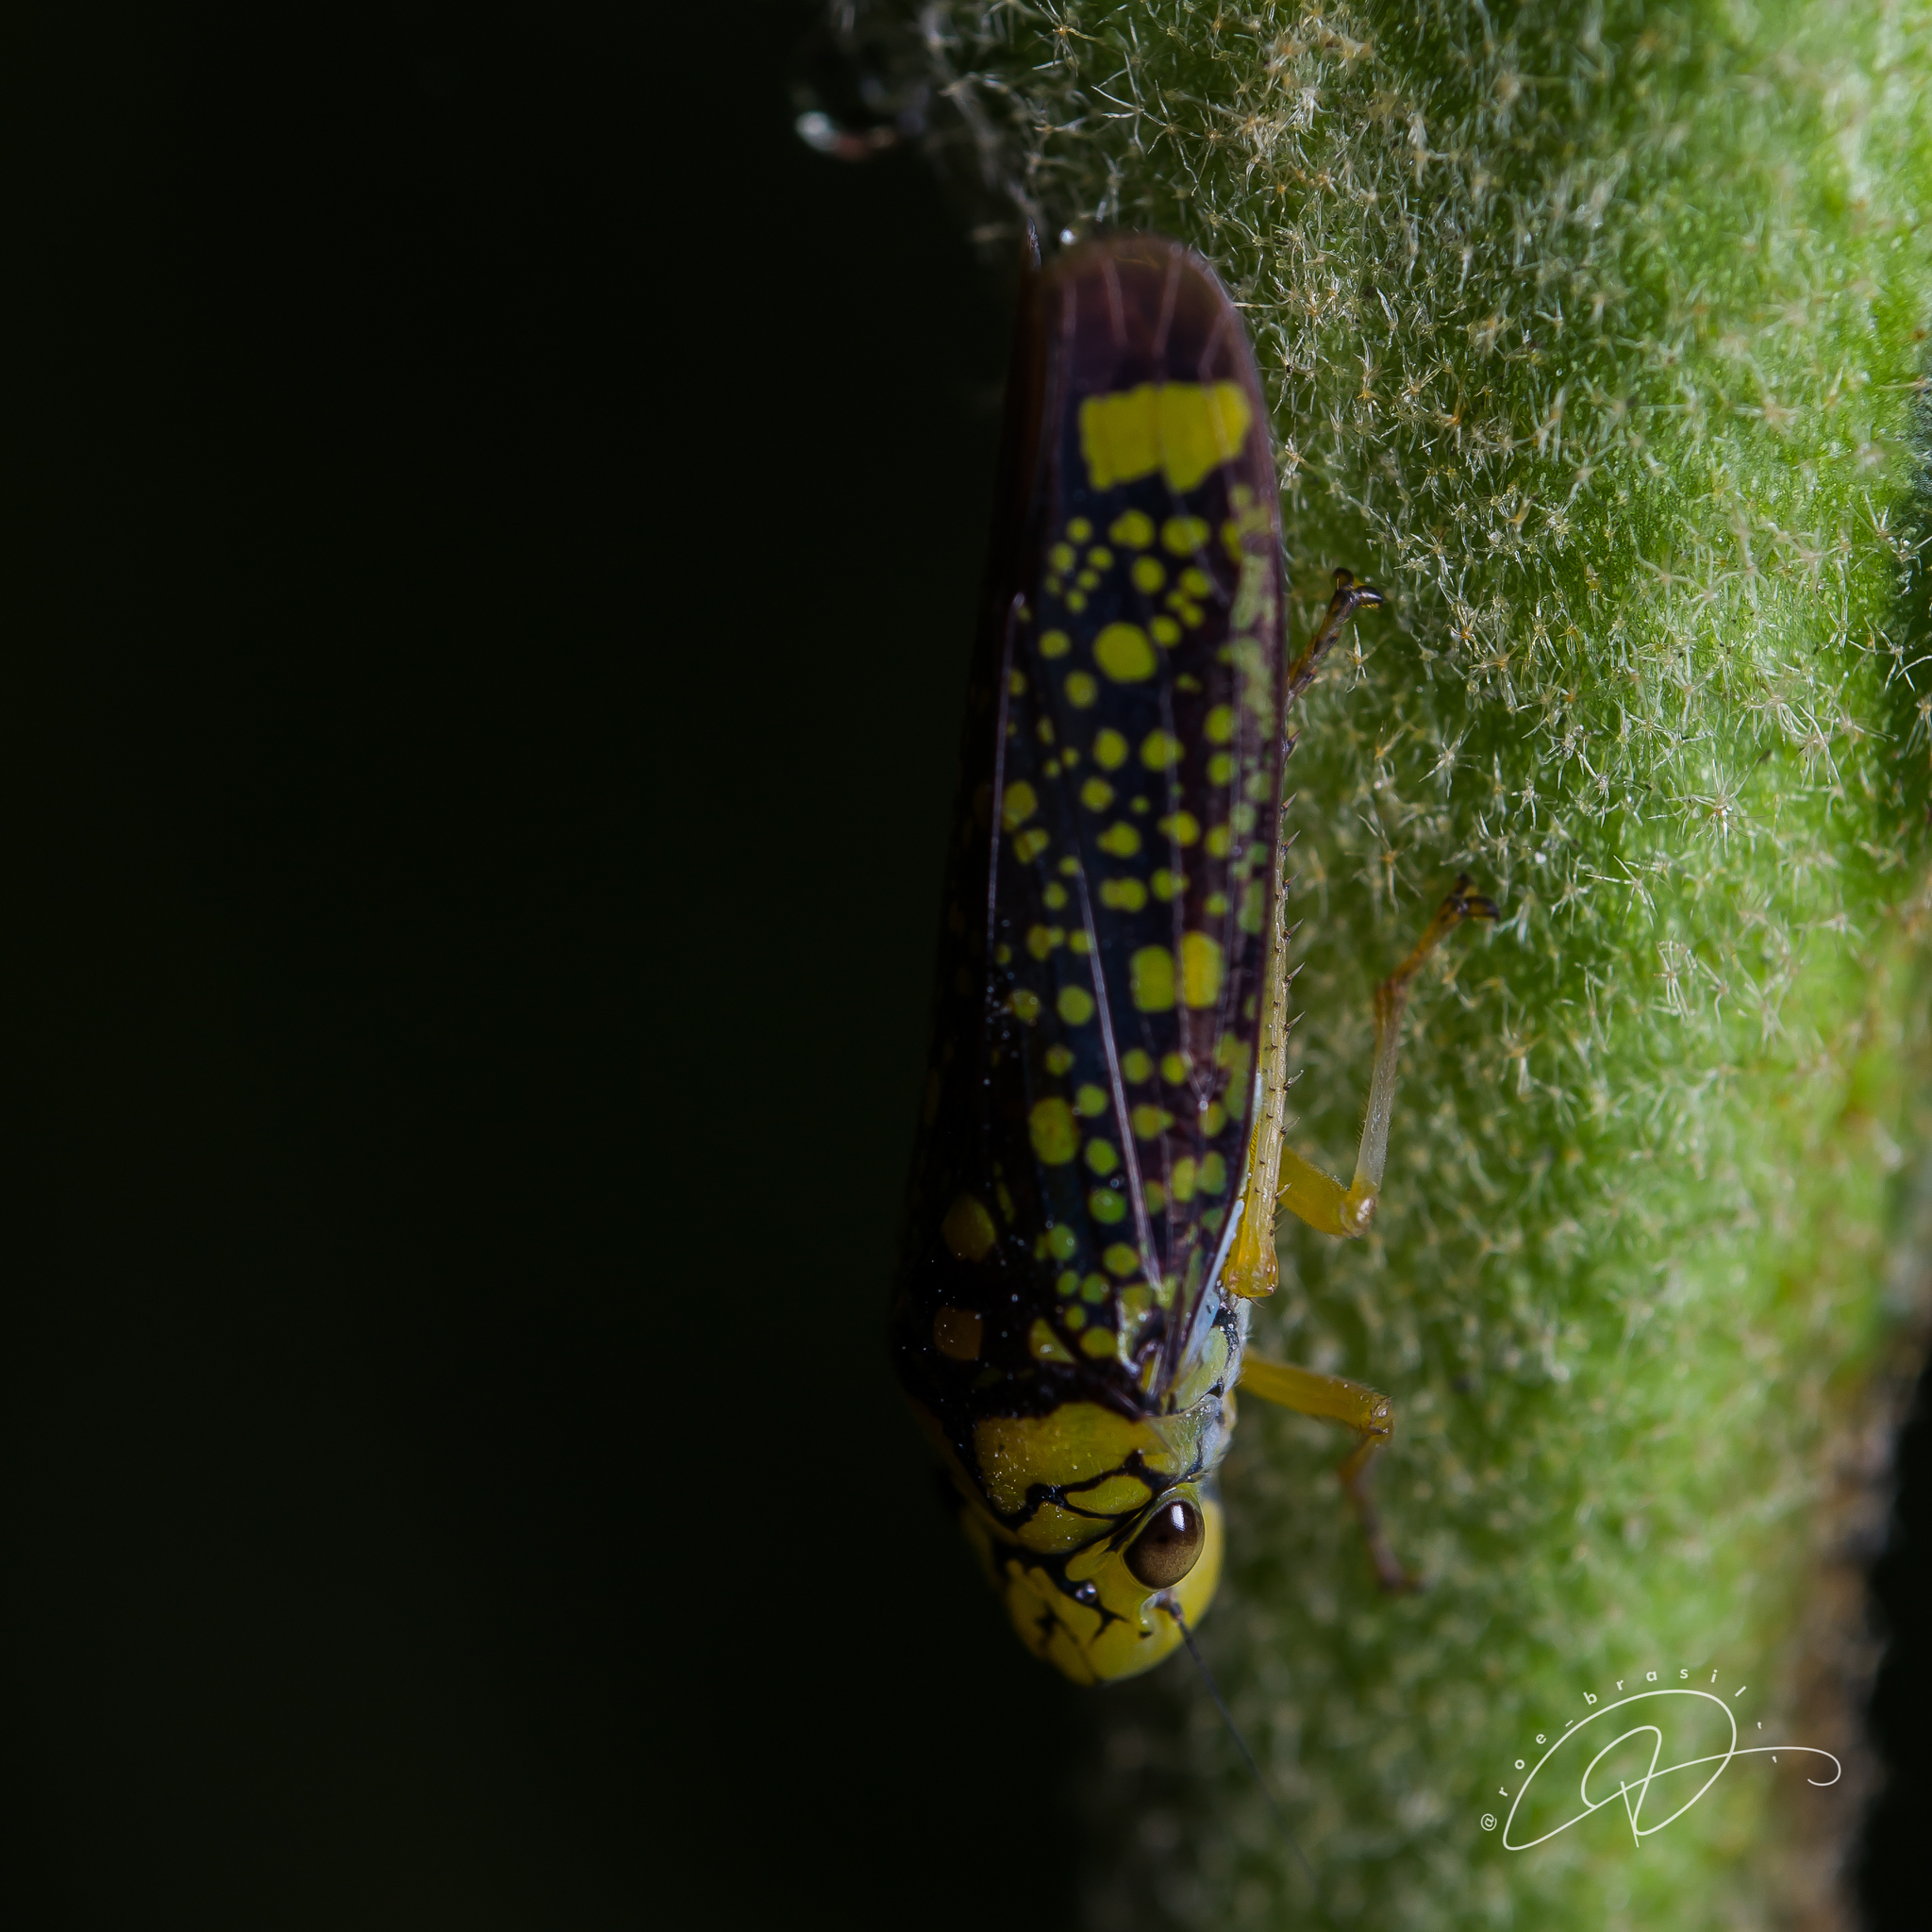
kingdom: Animalia
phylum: Arthropoda
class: Insecta
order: Hemiptera
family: Cicadellidae
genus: Aulacizes
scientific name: Aulacizes conspersa
